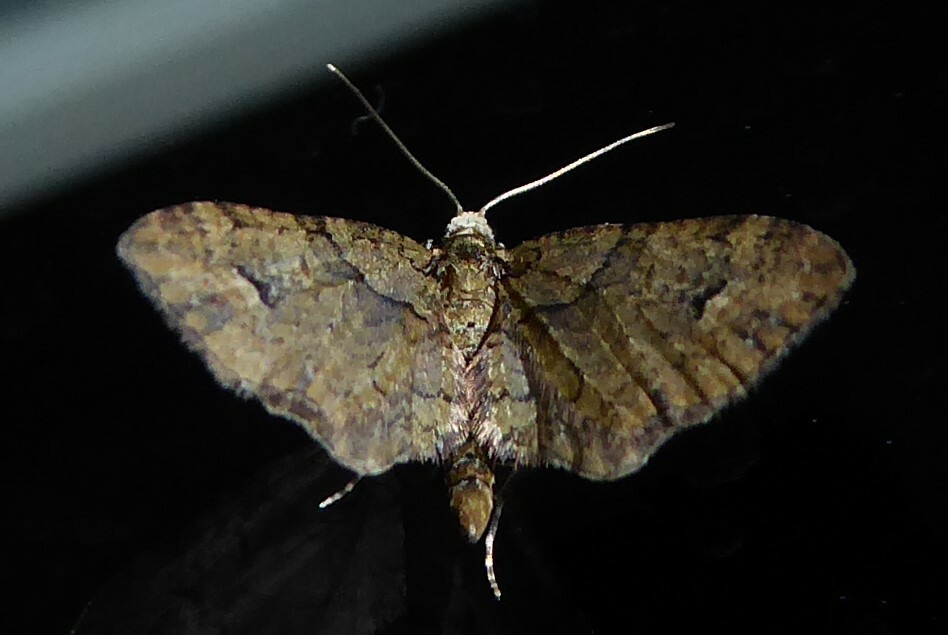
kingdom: Animalia
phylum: Arthropoda
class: Insecta
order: Lepidoptera
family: Geometridae
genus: Idaea
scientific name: Idaea mutanda
